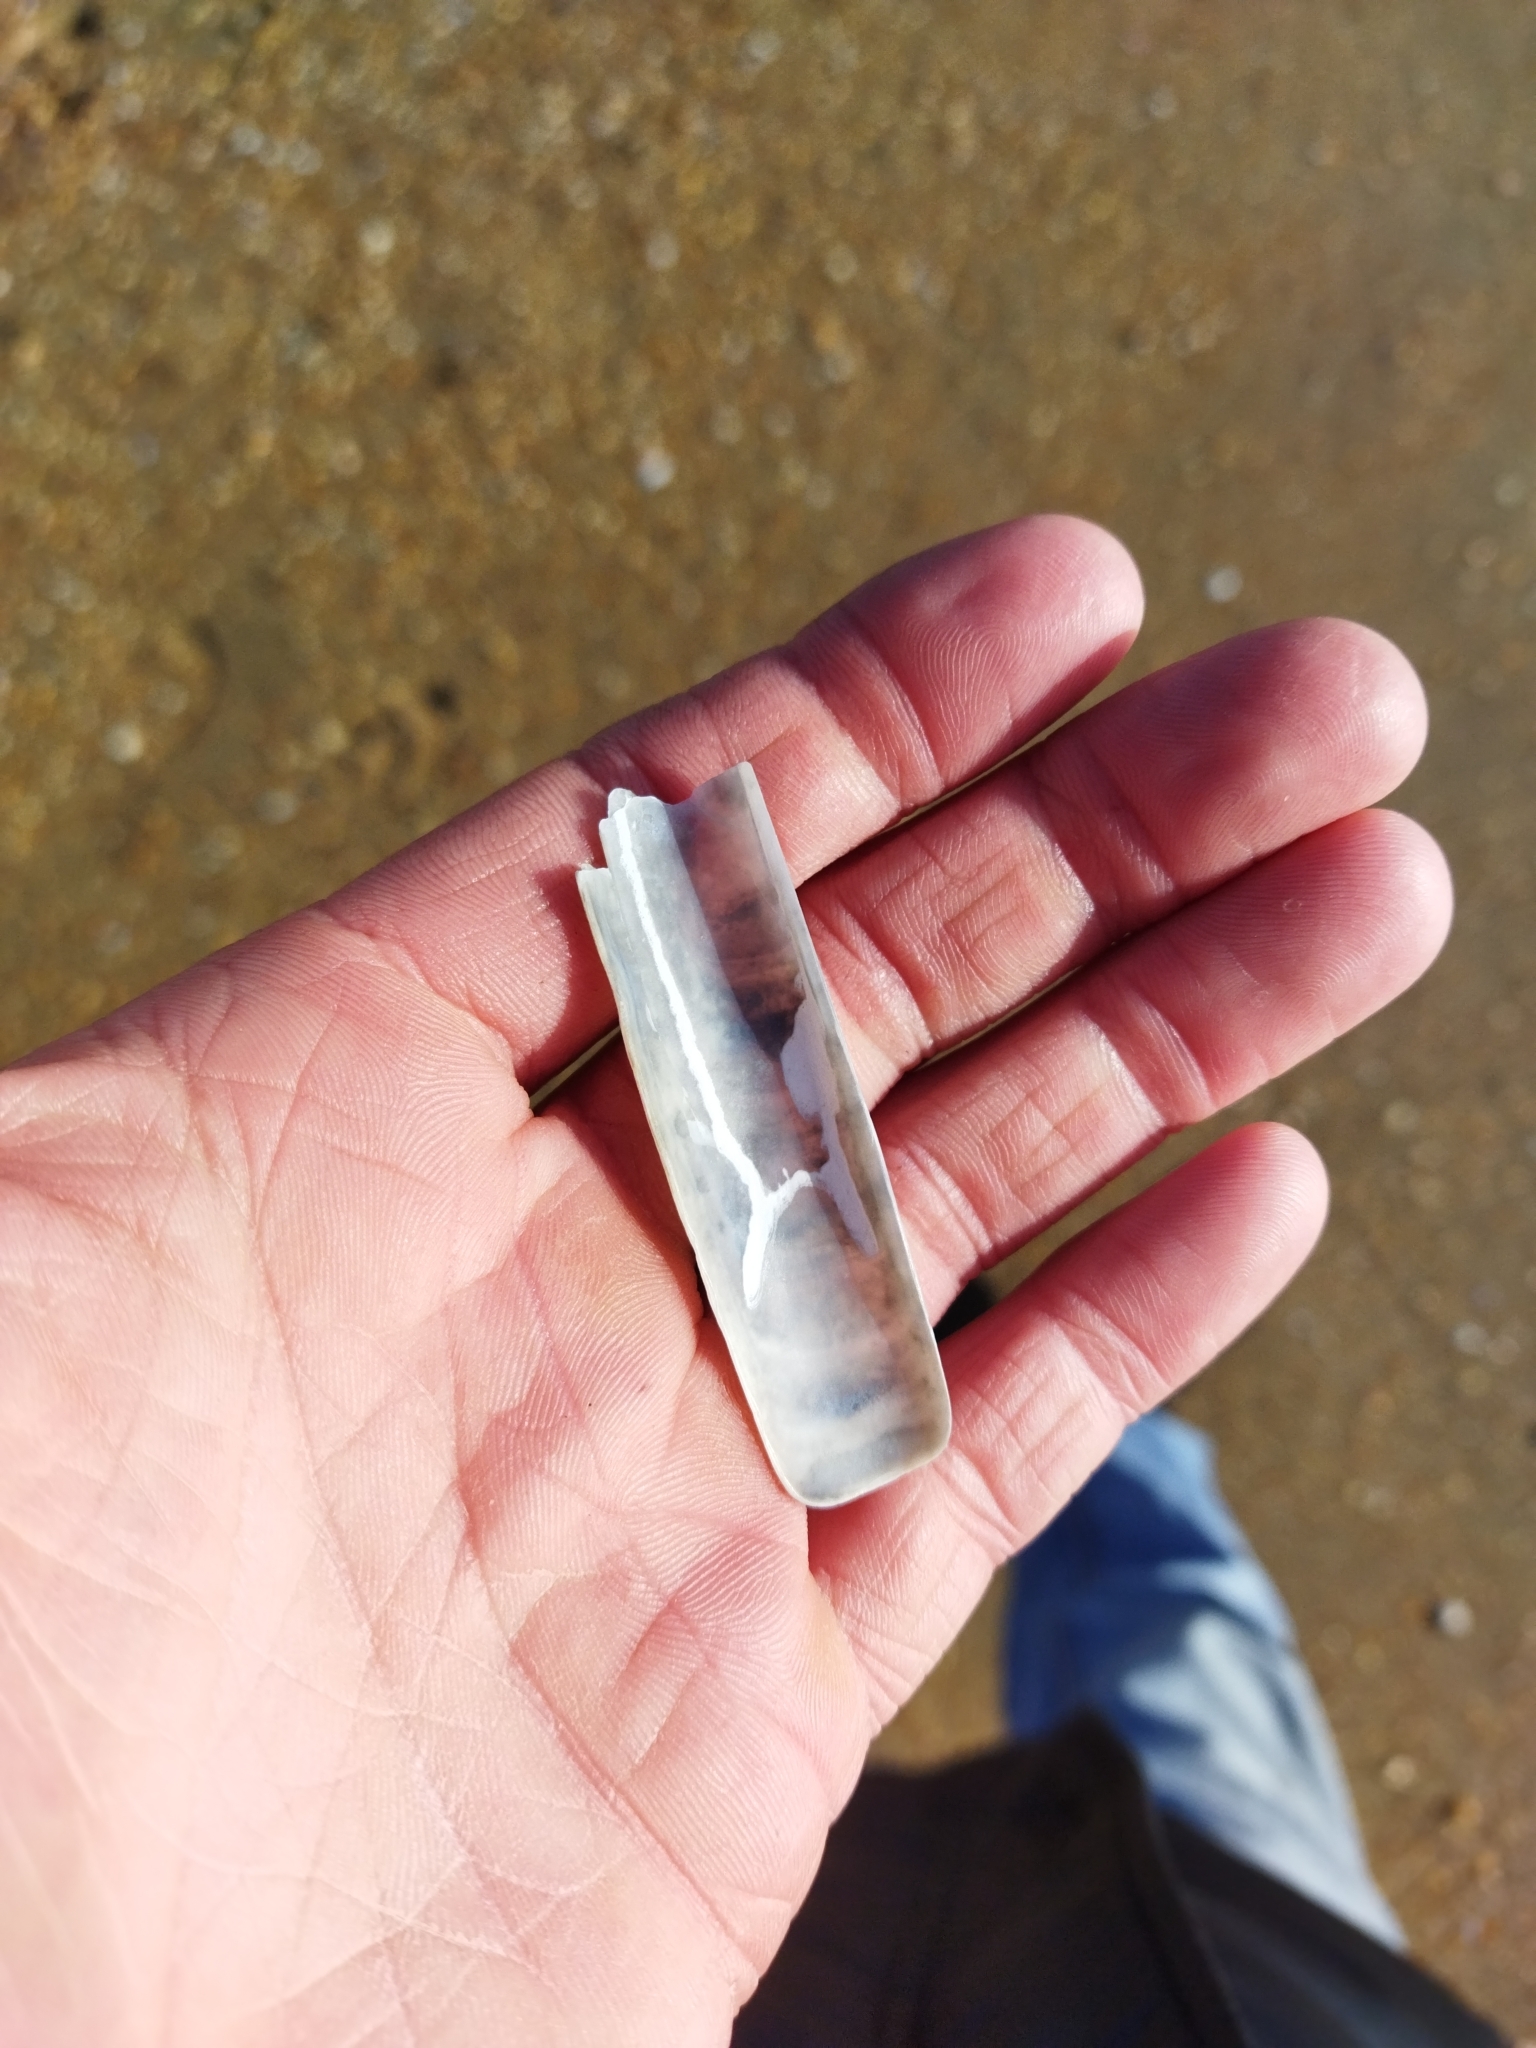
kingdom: Animalia
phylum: Mollusca
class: Bivalvia
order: Adapedonta
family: Solenidae
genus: Solen
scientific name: Solen marginatus
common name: Grooved razor shell
